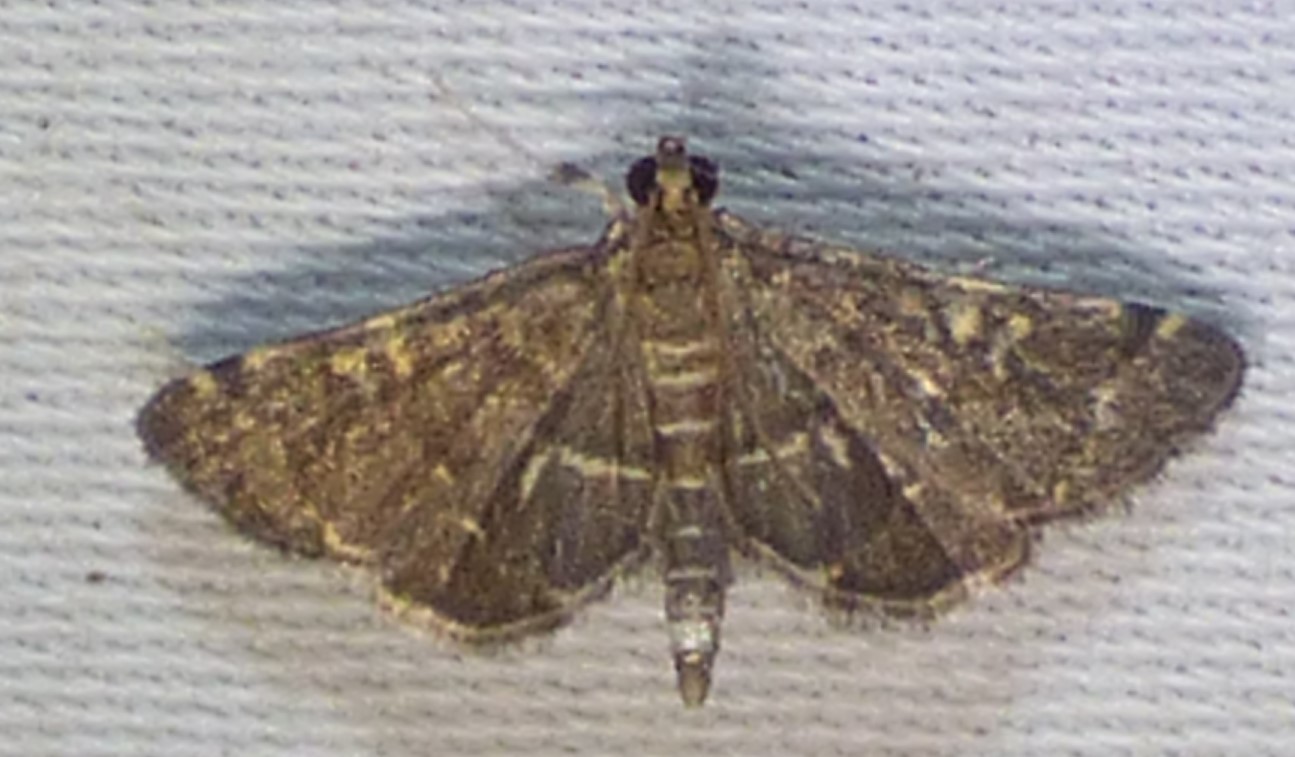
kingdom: Animalia
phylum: Arthropoda
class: Insecta
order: Lepidoptera
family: Crambidae
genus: Anageshna
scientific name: Anageshna primordialis
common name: Yellow-spotted webworm moth
